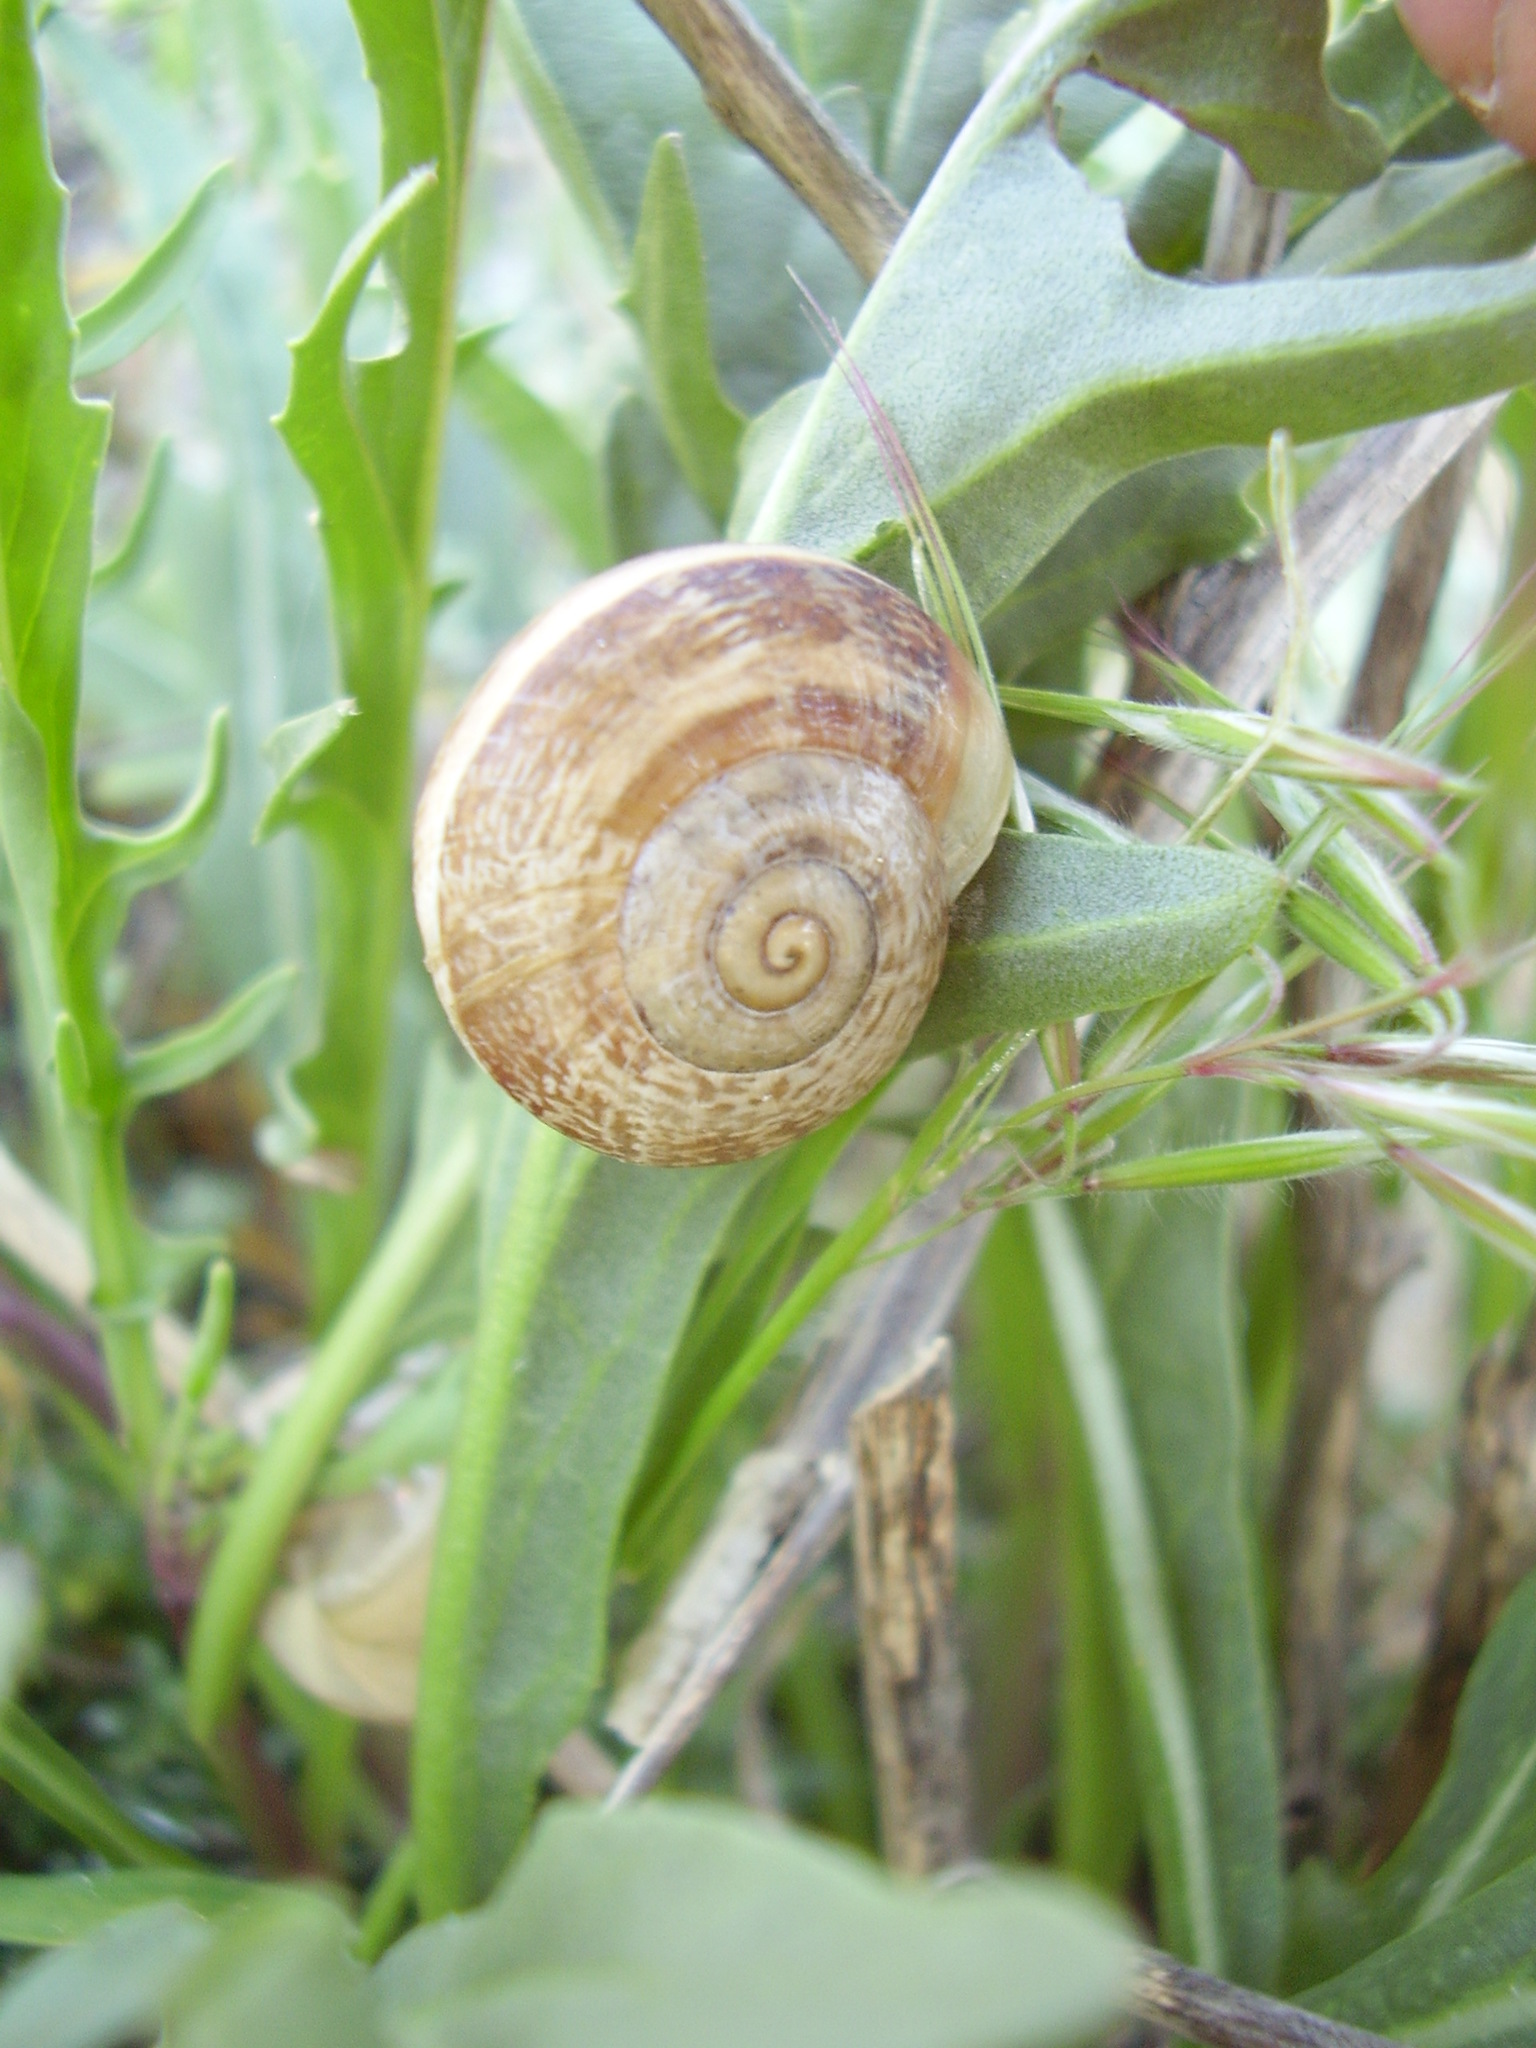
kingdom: Animalia
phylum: Mollusca
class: Gastropoda
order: Stylommatophora
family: Helicidae
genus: Eobania
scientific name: Eobania vermiculata
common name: Chocolateband snail
